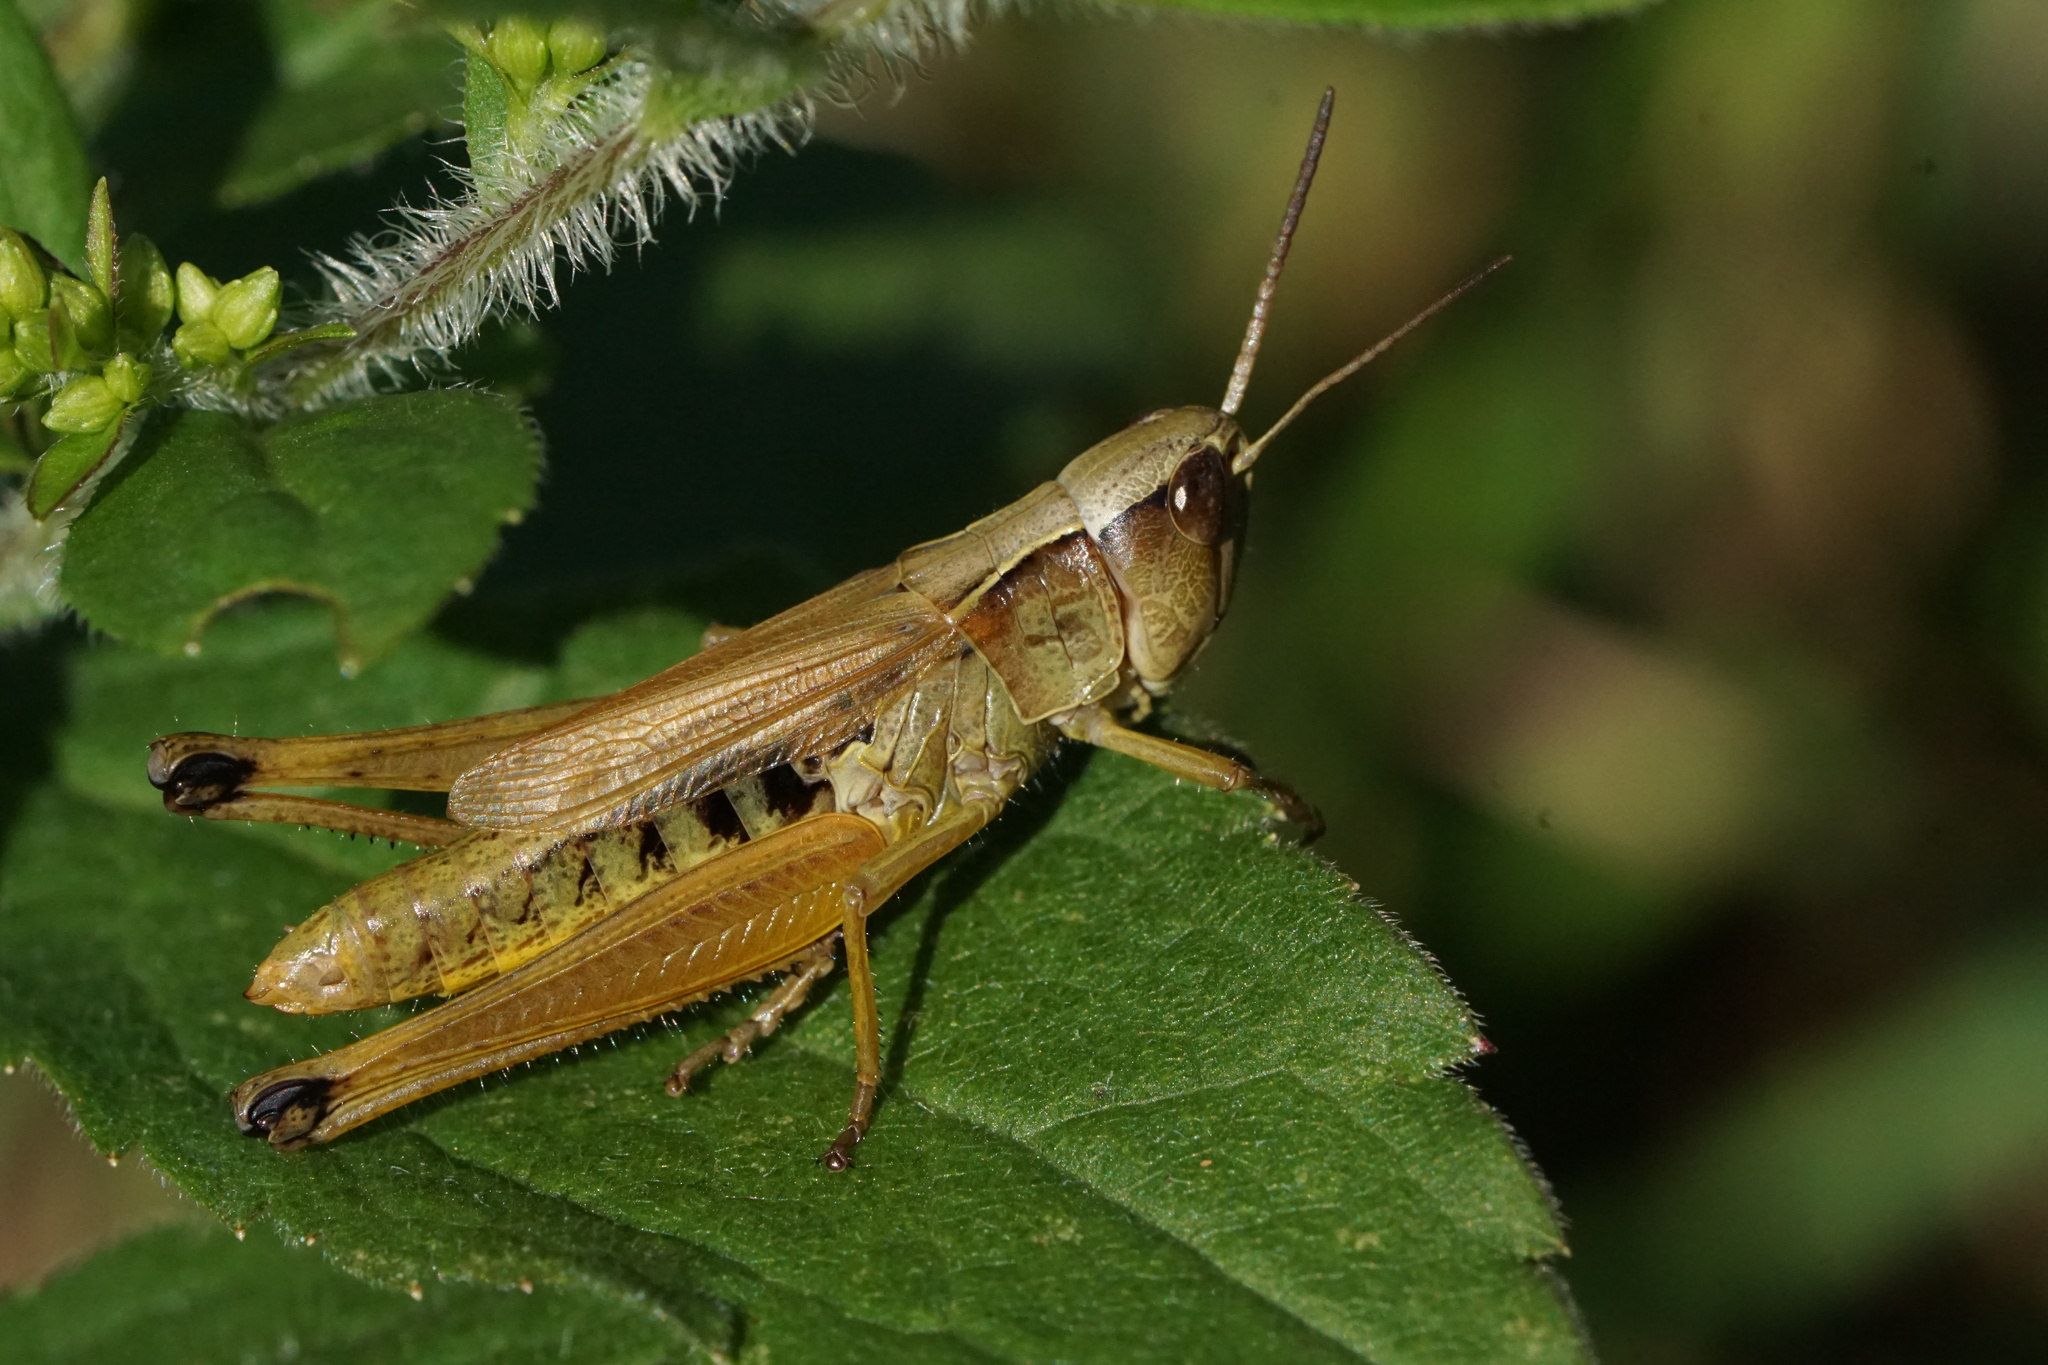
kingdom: Animalia
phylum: Arthropoda
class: Insecta
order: Orthoptera
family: Acrididae
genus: Pseudochorthippus
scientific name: Pseudochorthippus curtipennis
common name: Marsh meadow grasshopper
